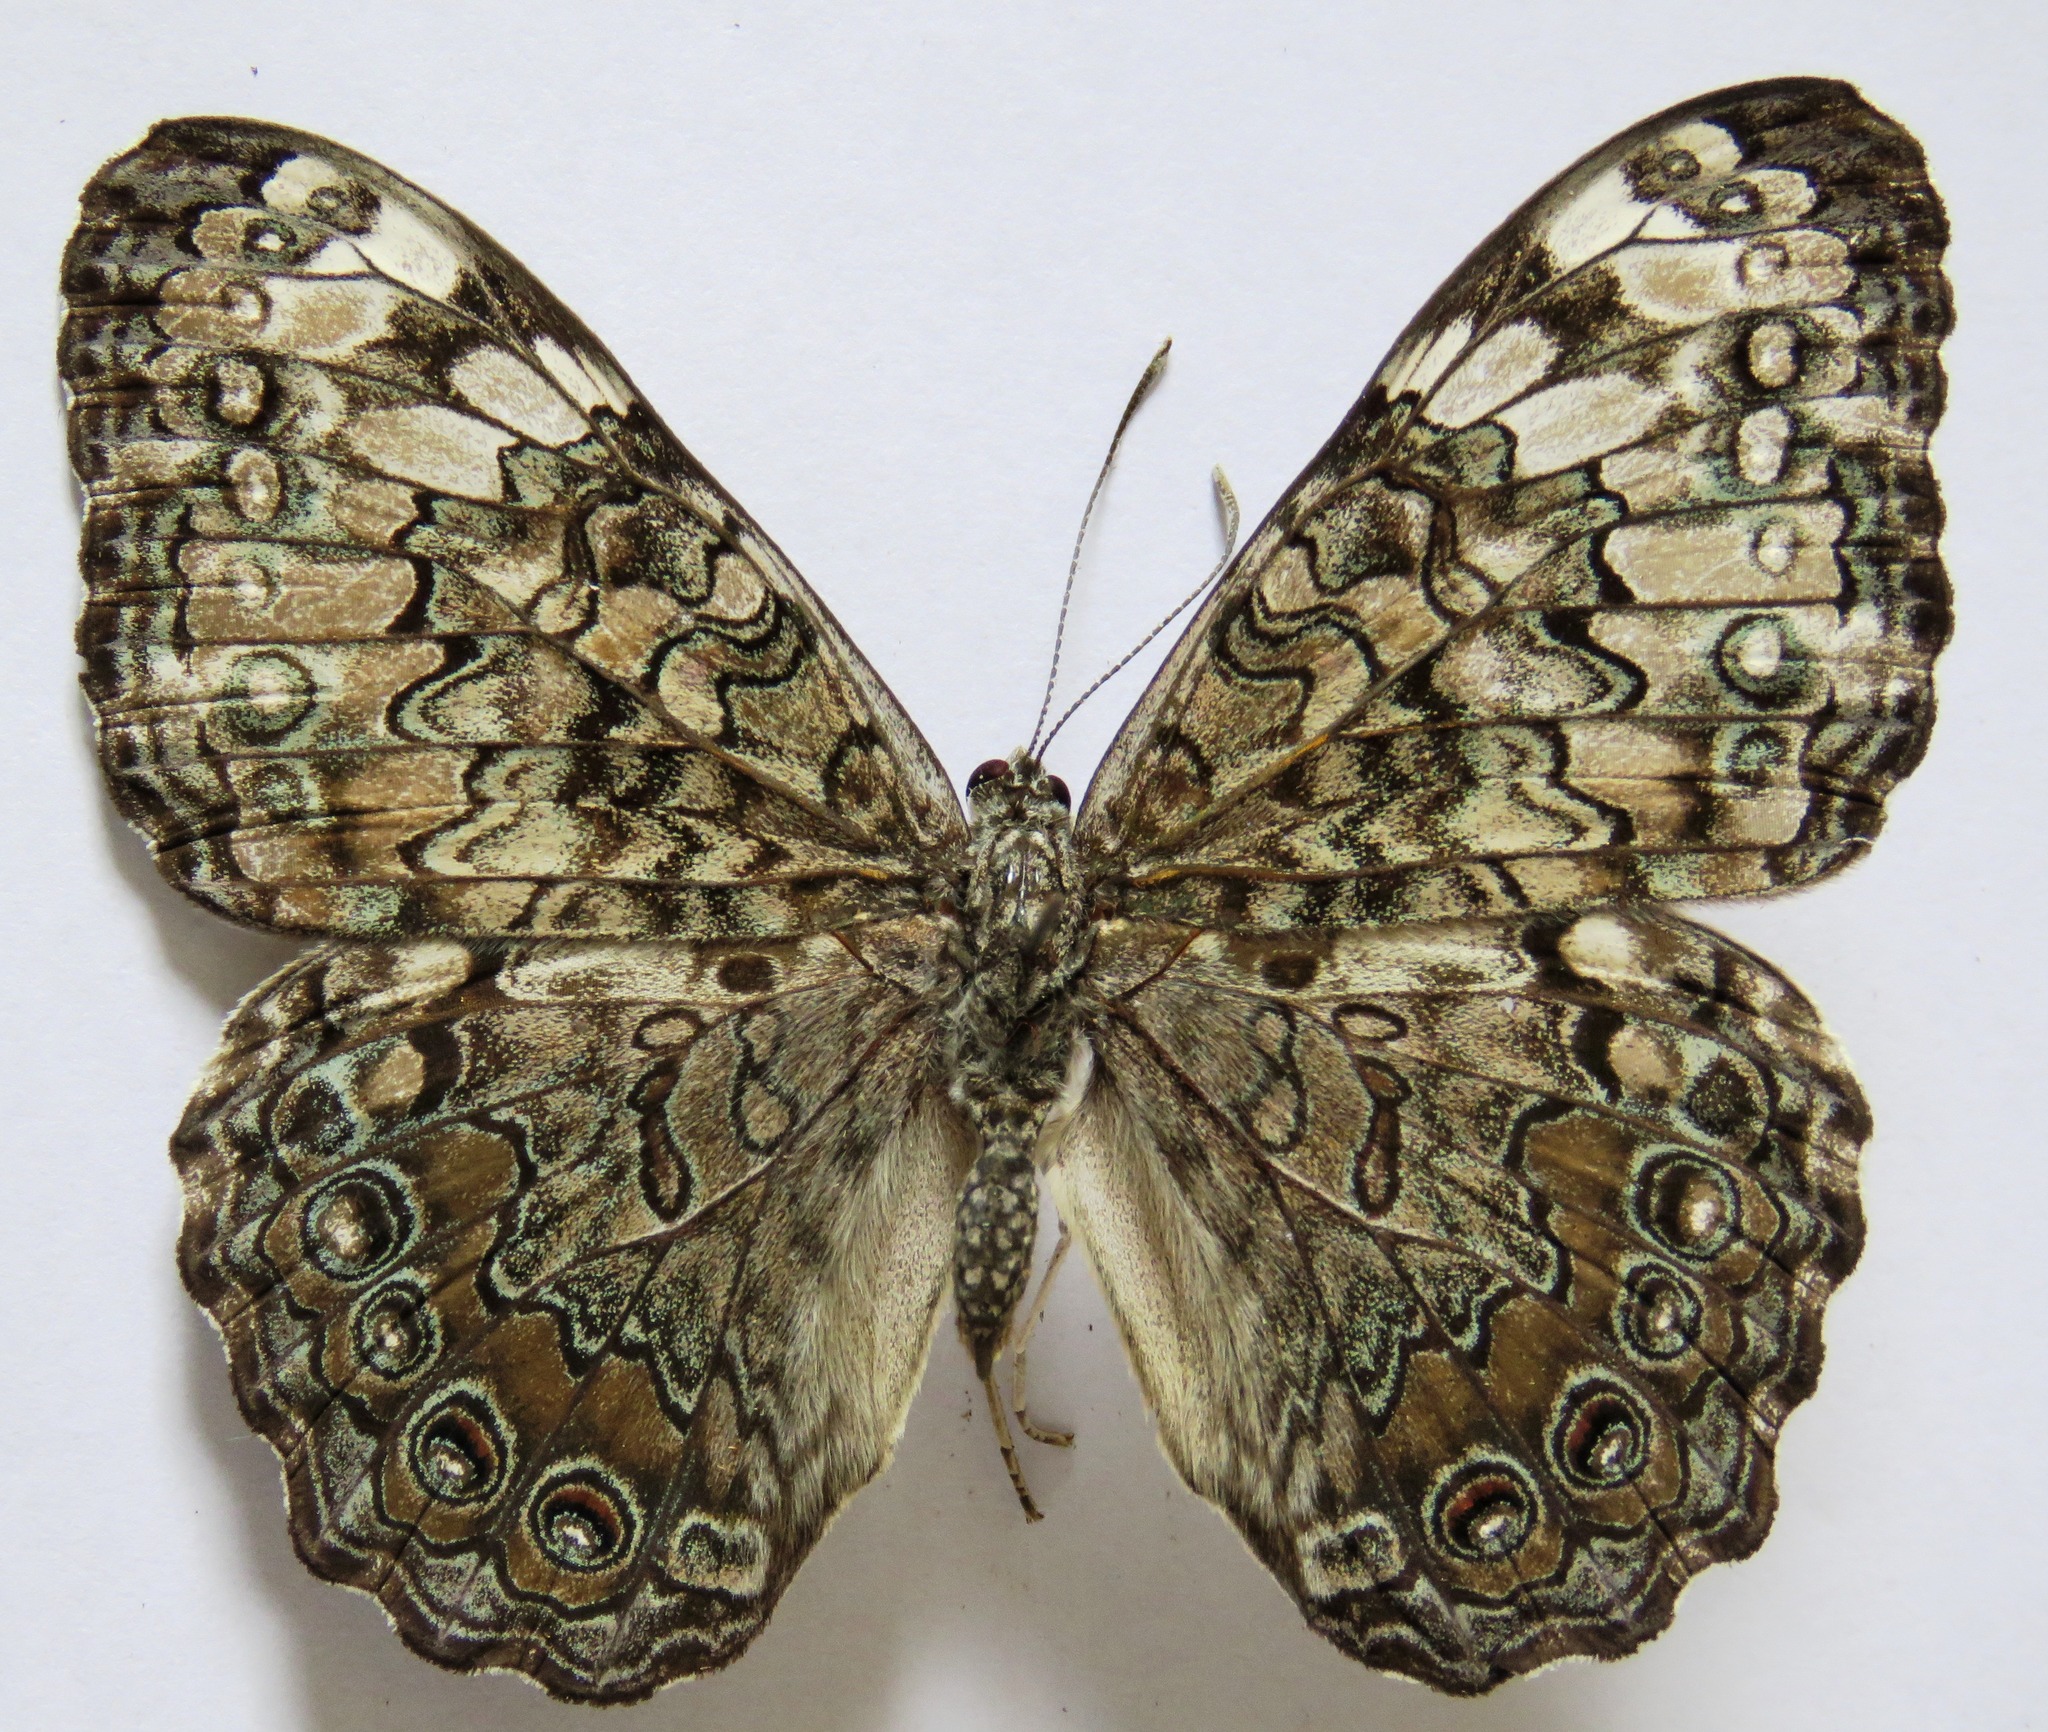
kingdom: Animalia
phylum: Arthropoda
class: Insecta
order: Lepidoptera
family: Nymphalidae
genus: Hamadryas
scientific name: Hamadryas glauconome
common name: Glaucous cracker
